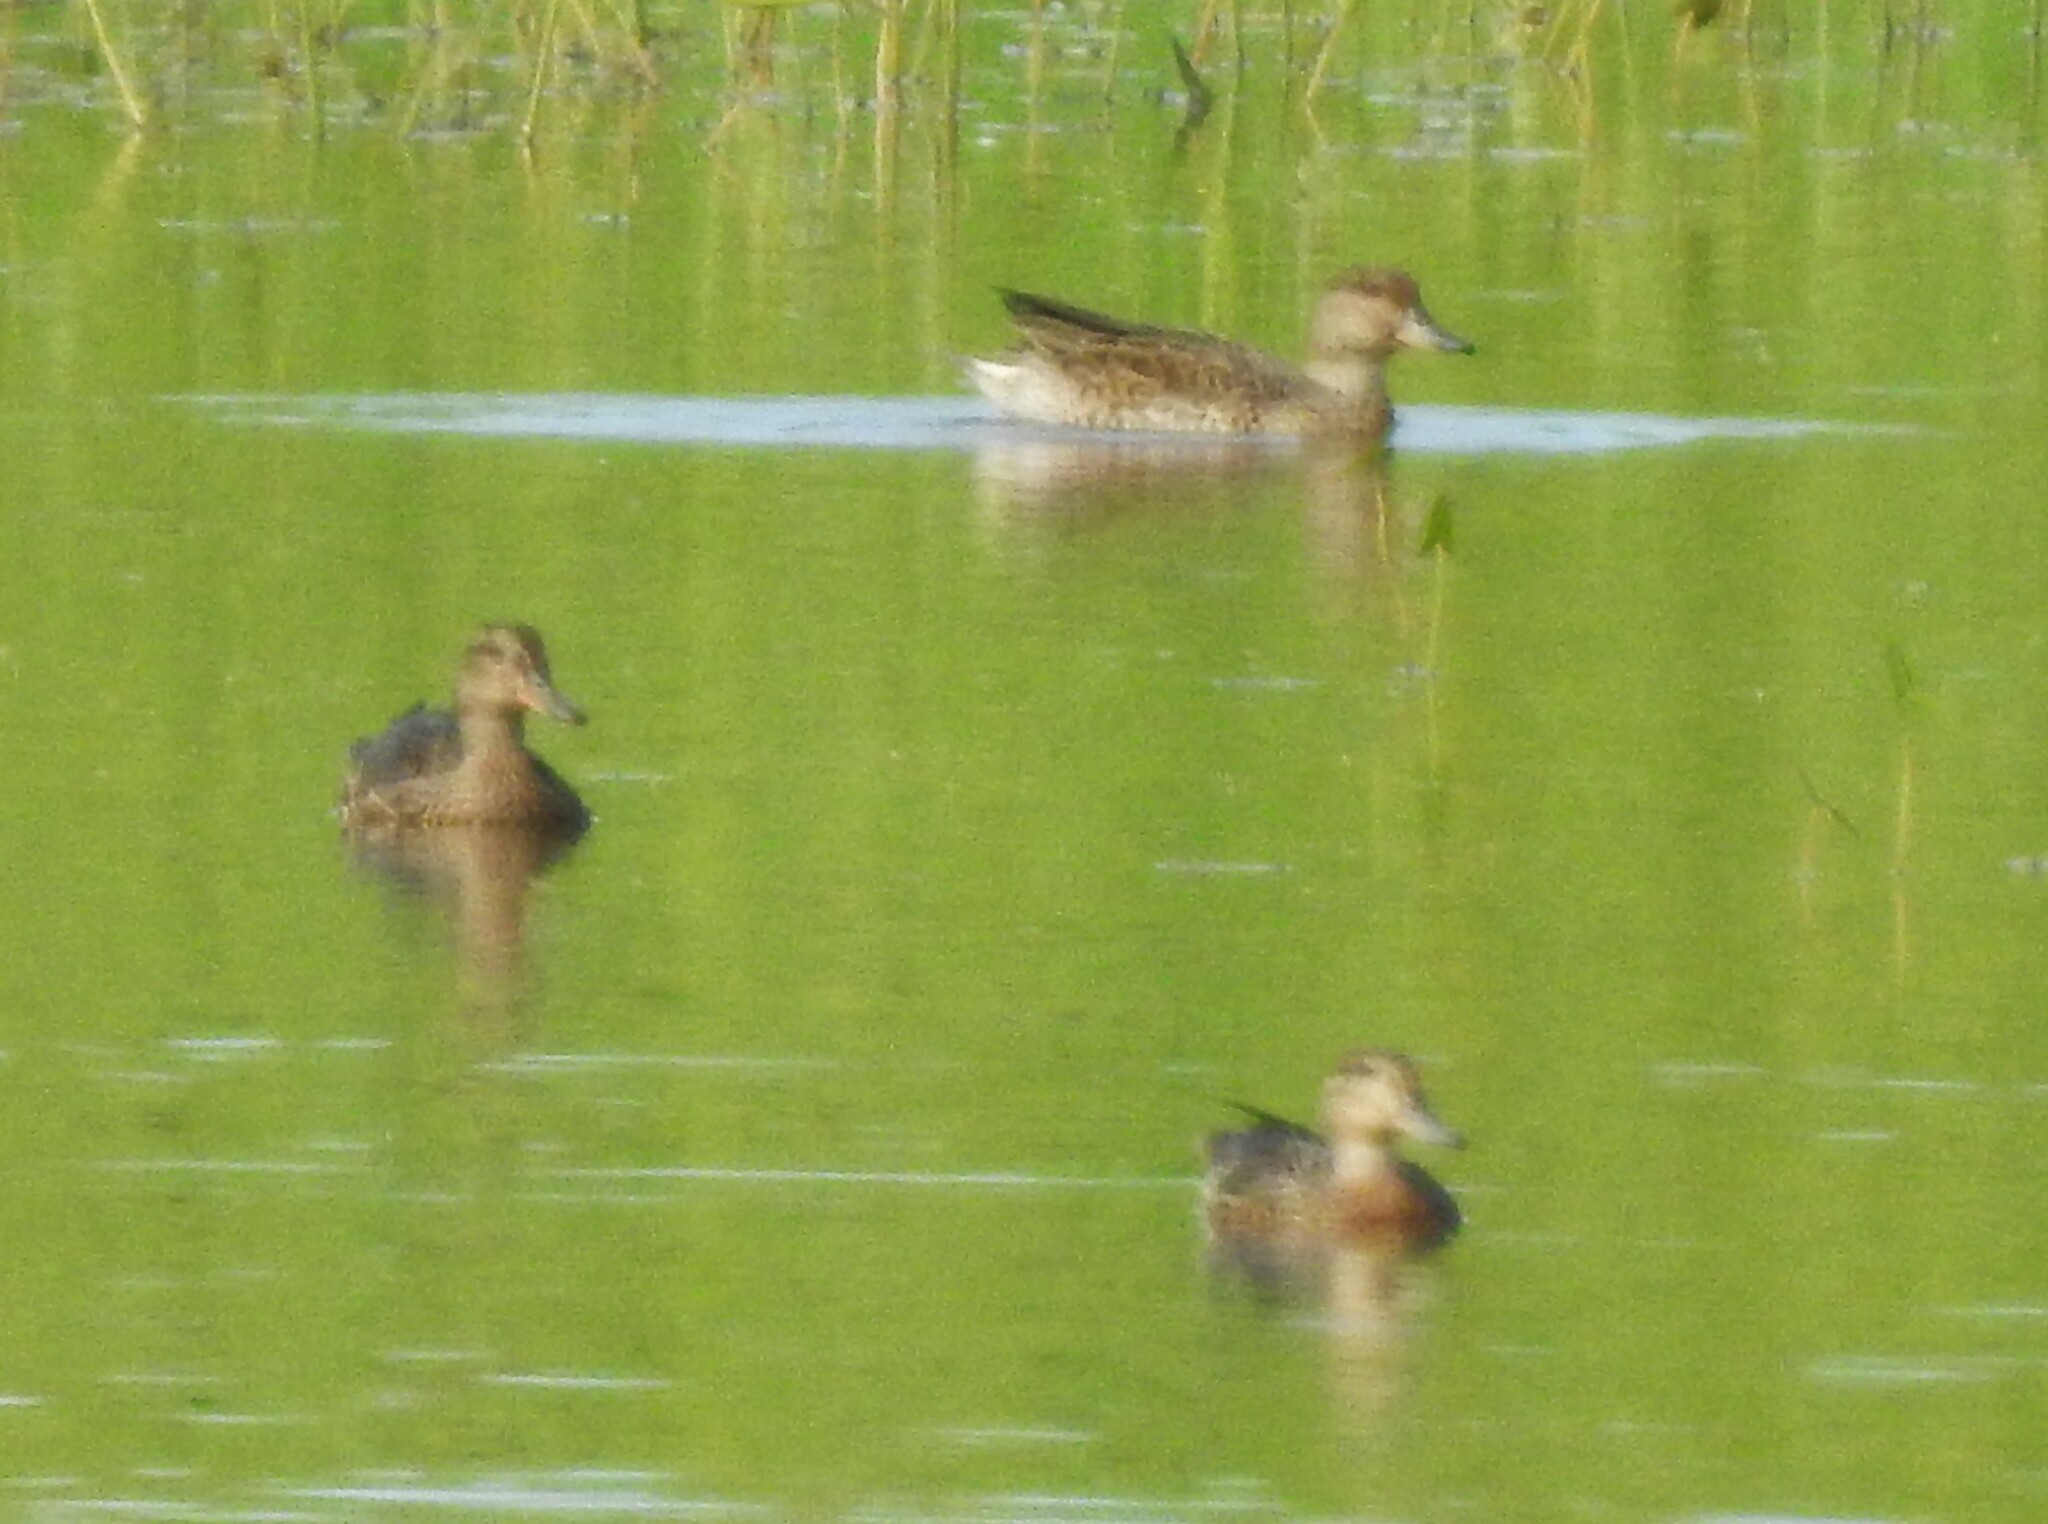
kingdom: Animalia
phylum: Chordata
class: Aves
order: Anseriformes
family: Anatidae
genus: Anas
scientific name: Anas crecca
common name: Eurasian teal
